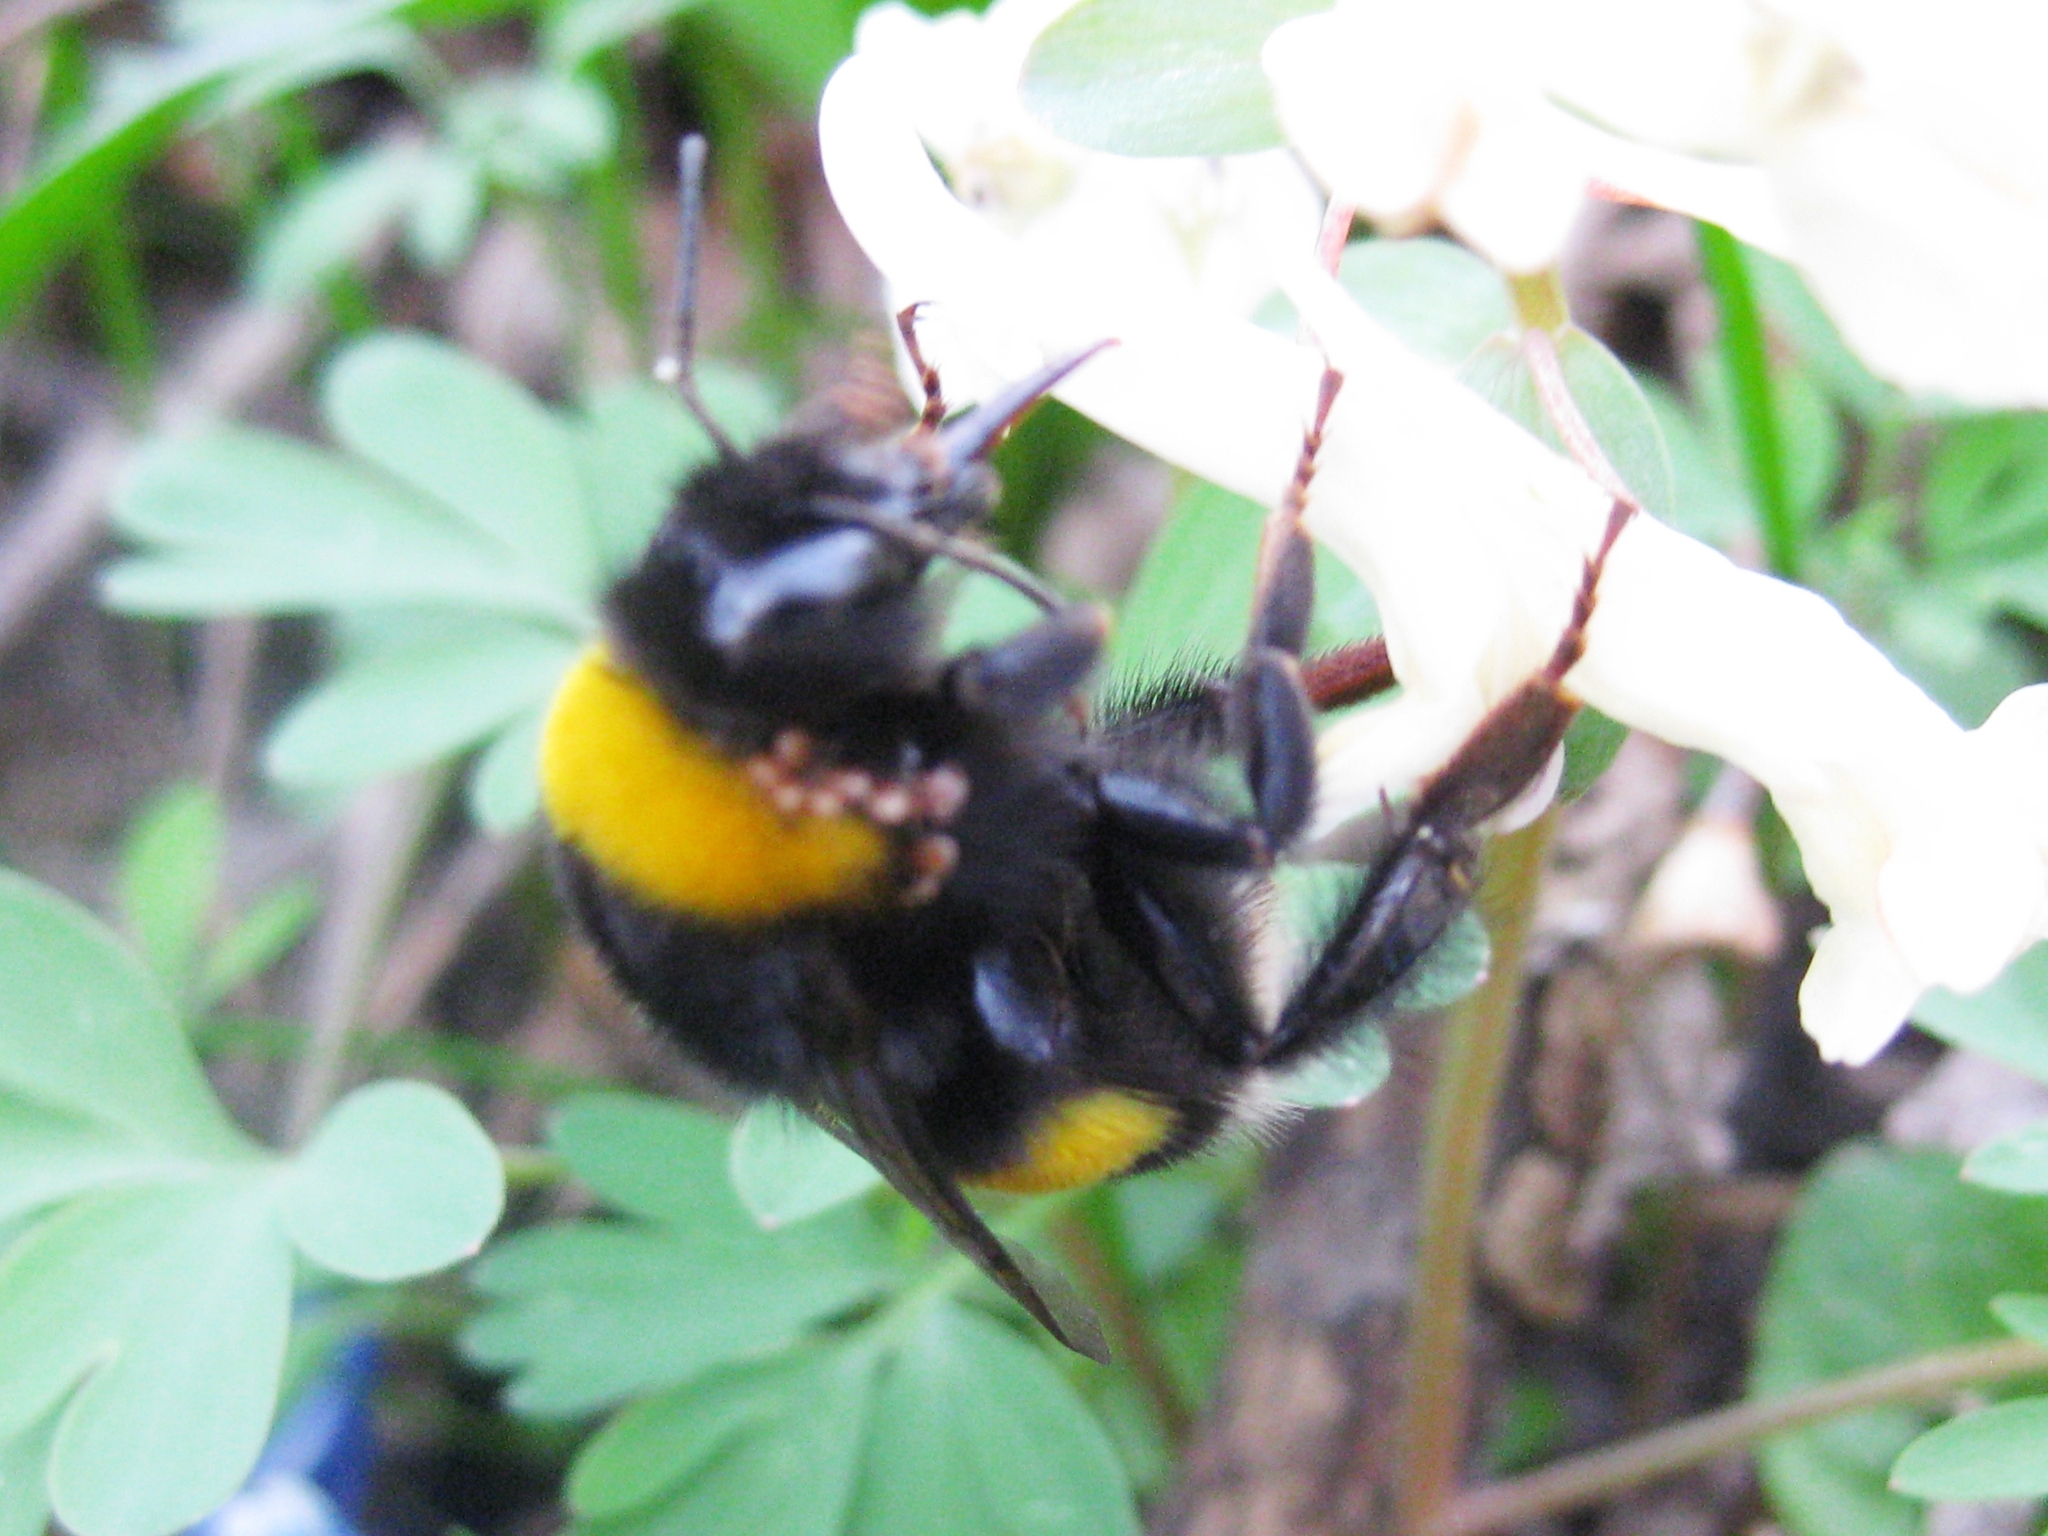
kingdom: Animalia
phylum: Arthropoda
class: Insecta
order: Hymenoptera
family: Apidae
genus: Bombus
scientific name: Bombus
